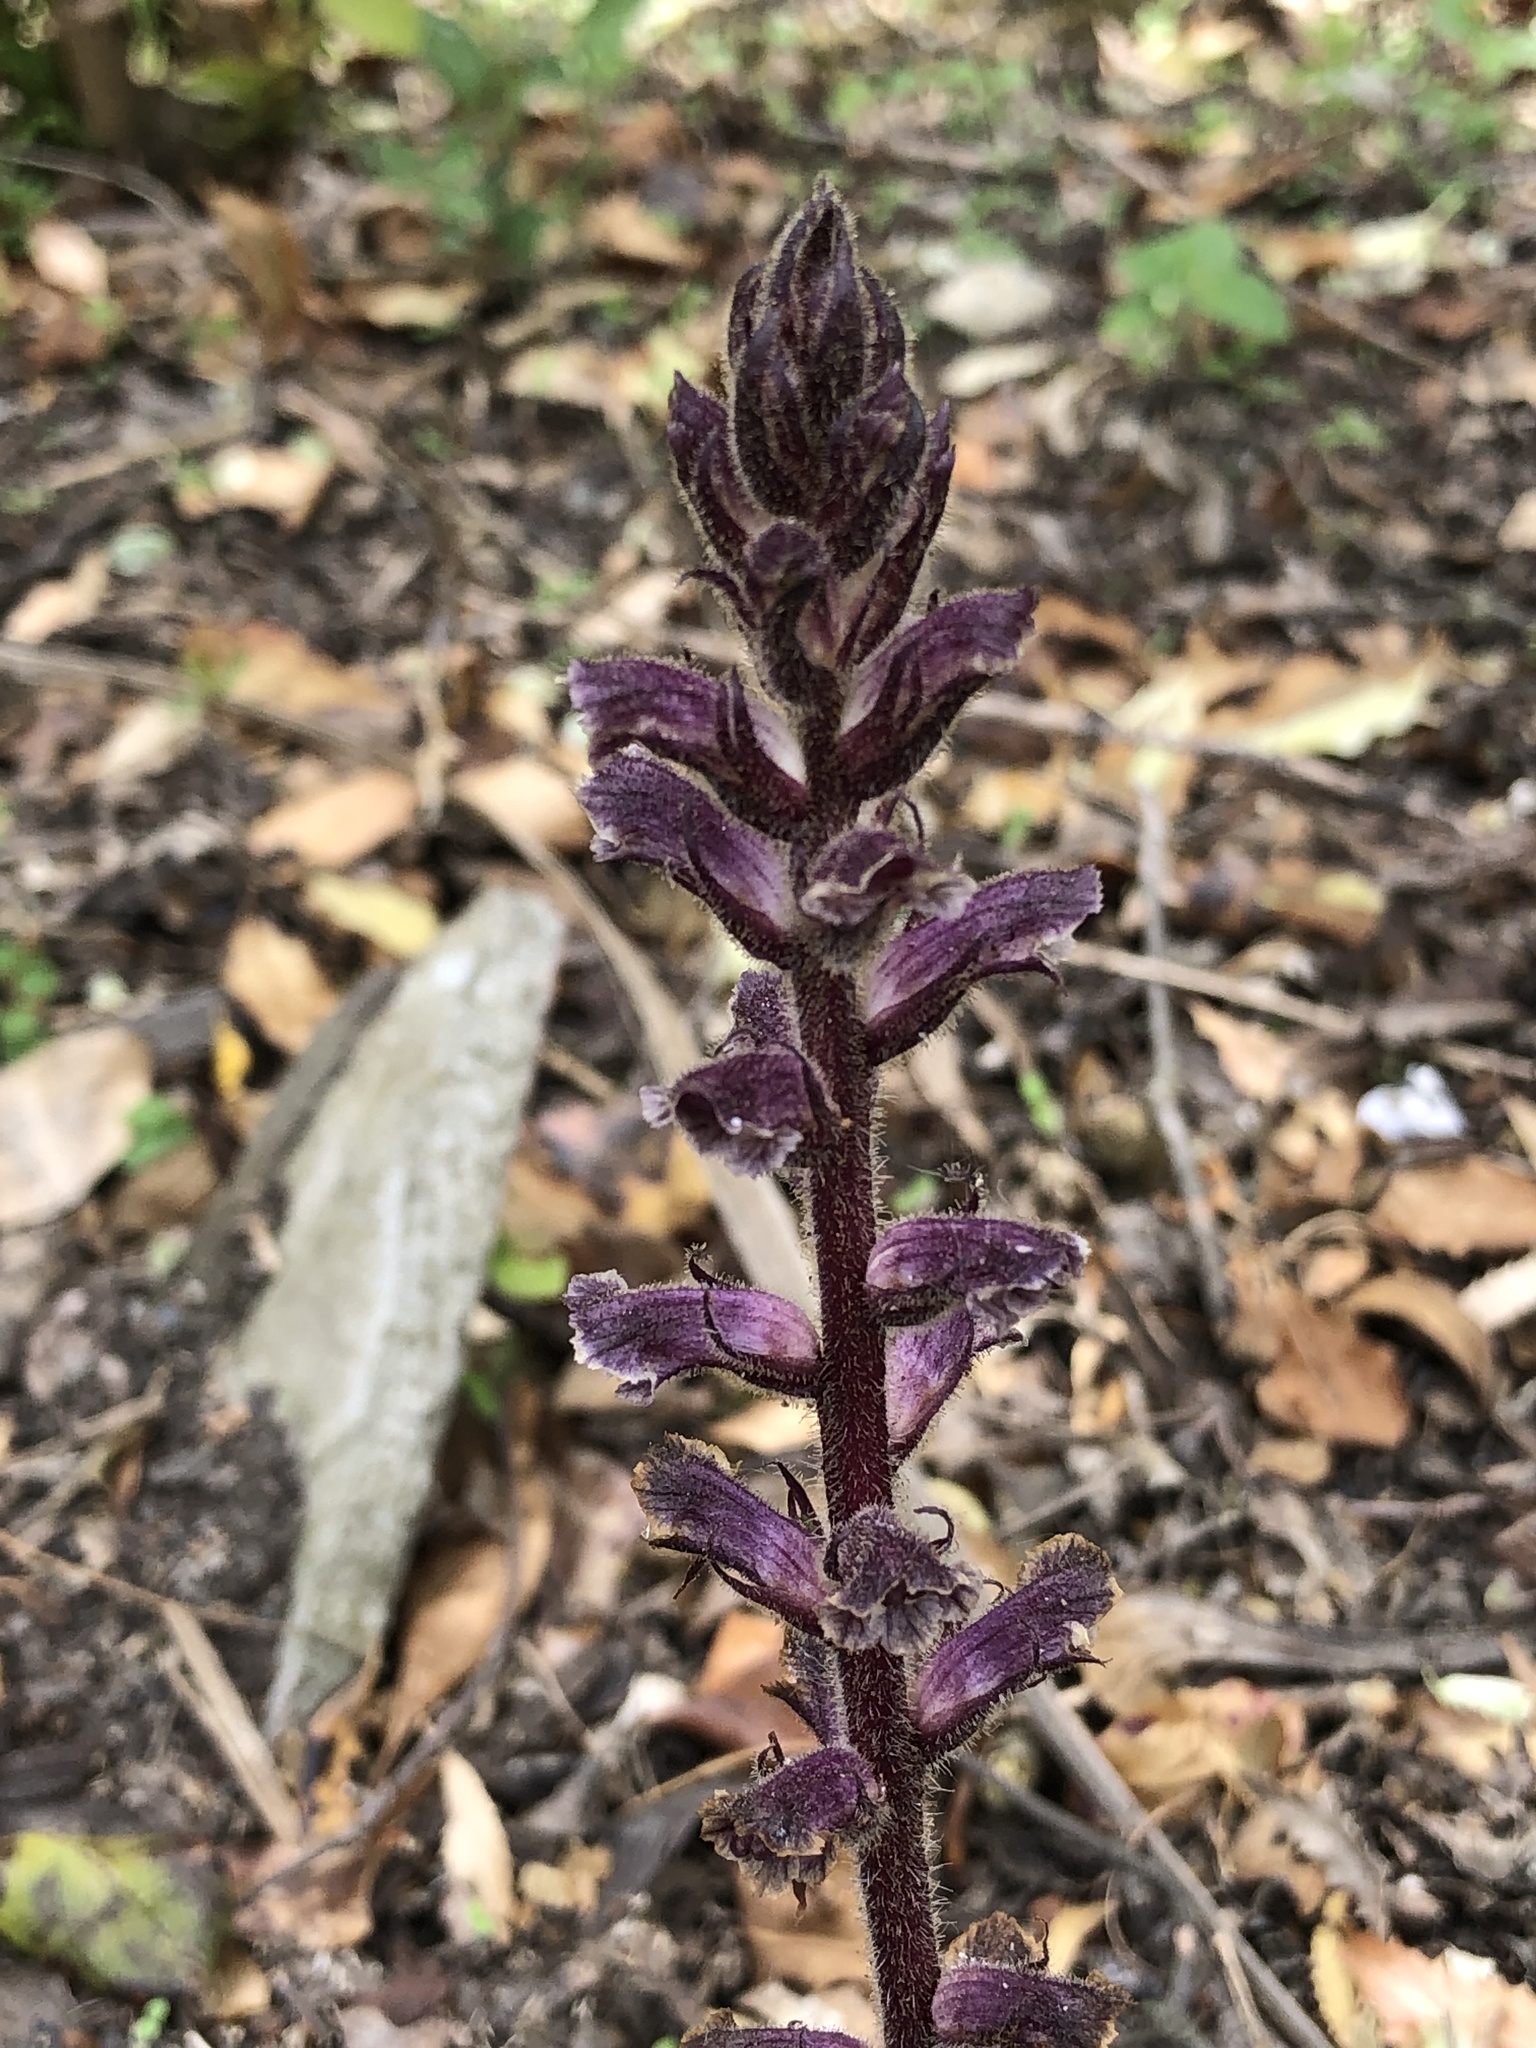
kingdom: Plantae
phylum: Tracheophyta
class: Magnoliopsida
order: Lamiales
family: Orobanchaceae
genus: Orobanche
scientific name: Orobanche minor
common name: Common broomrape
